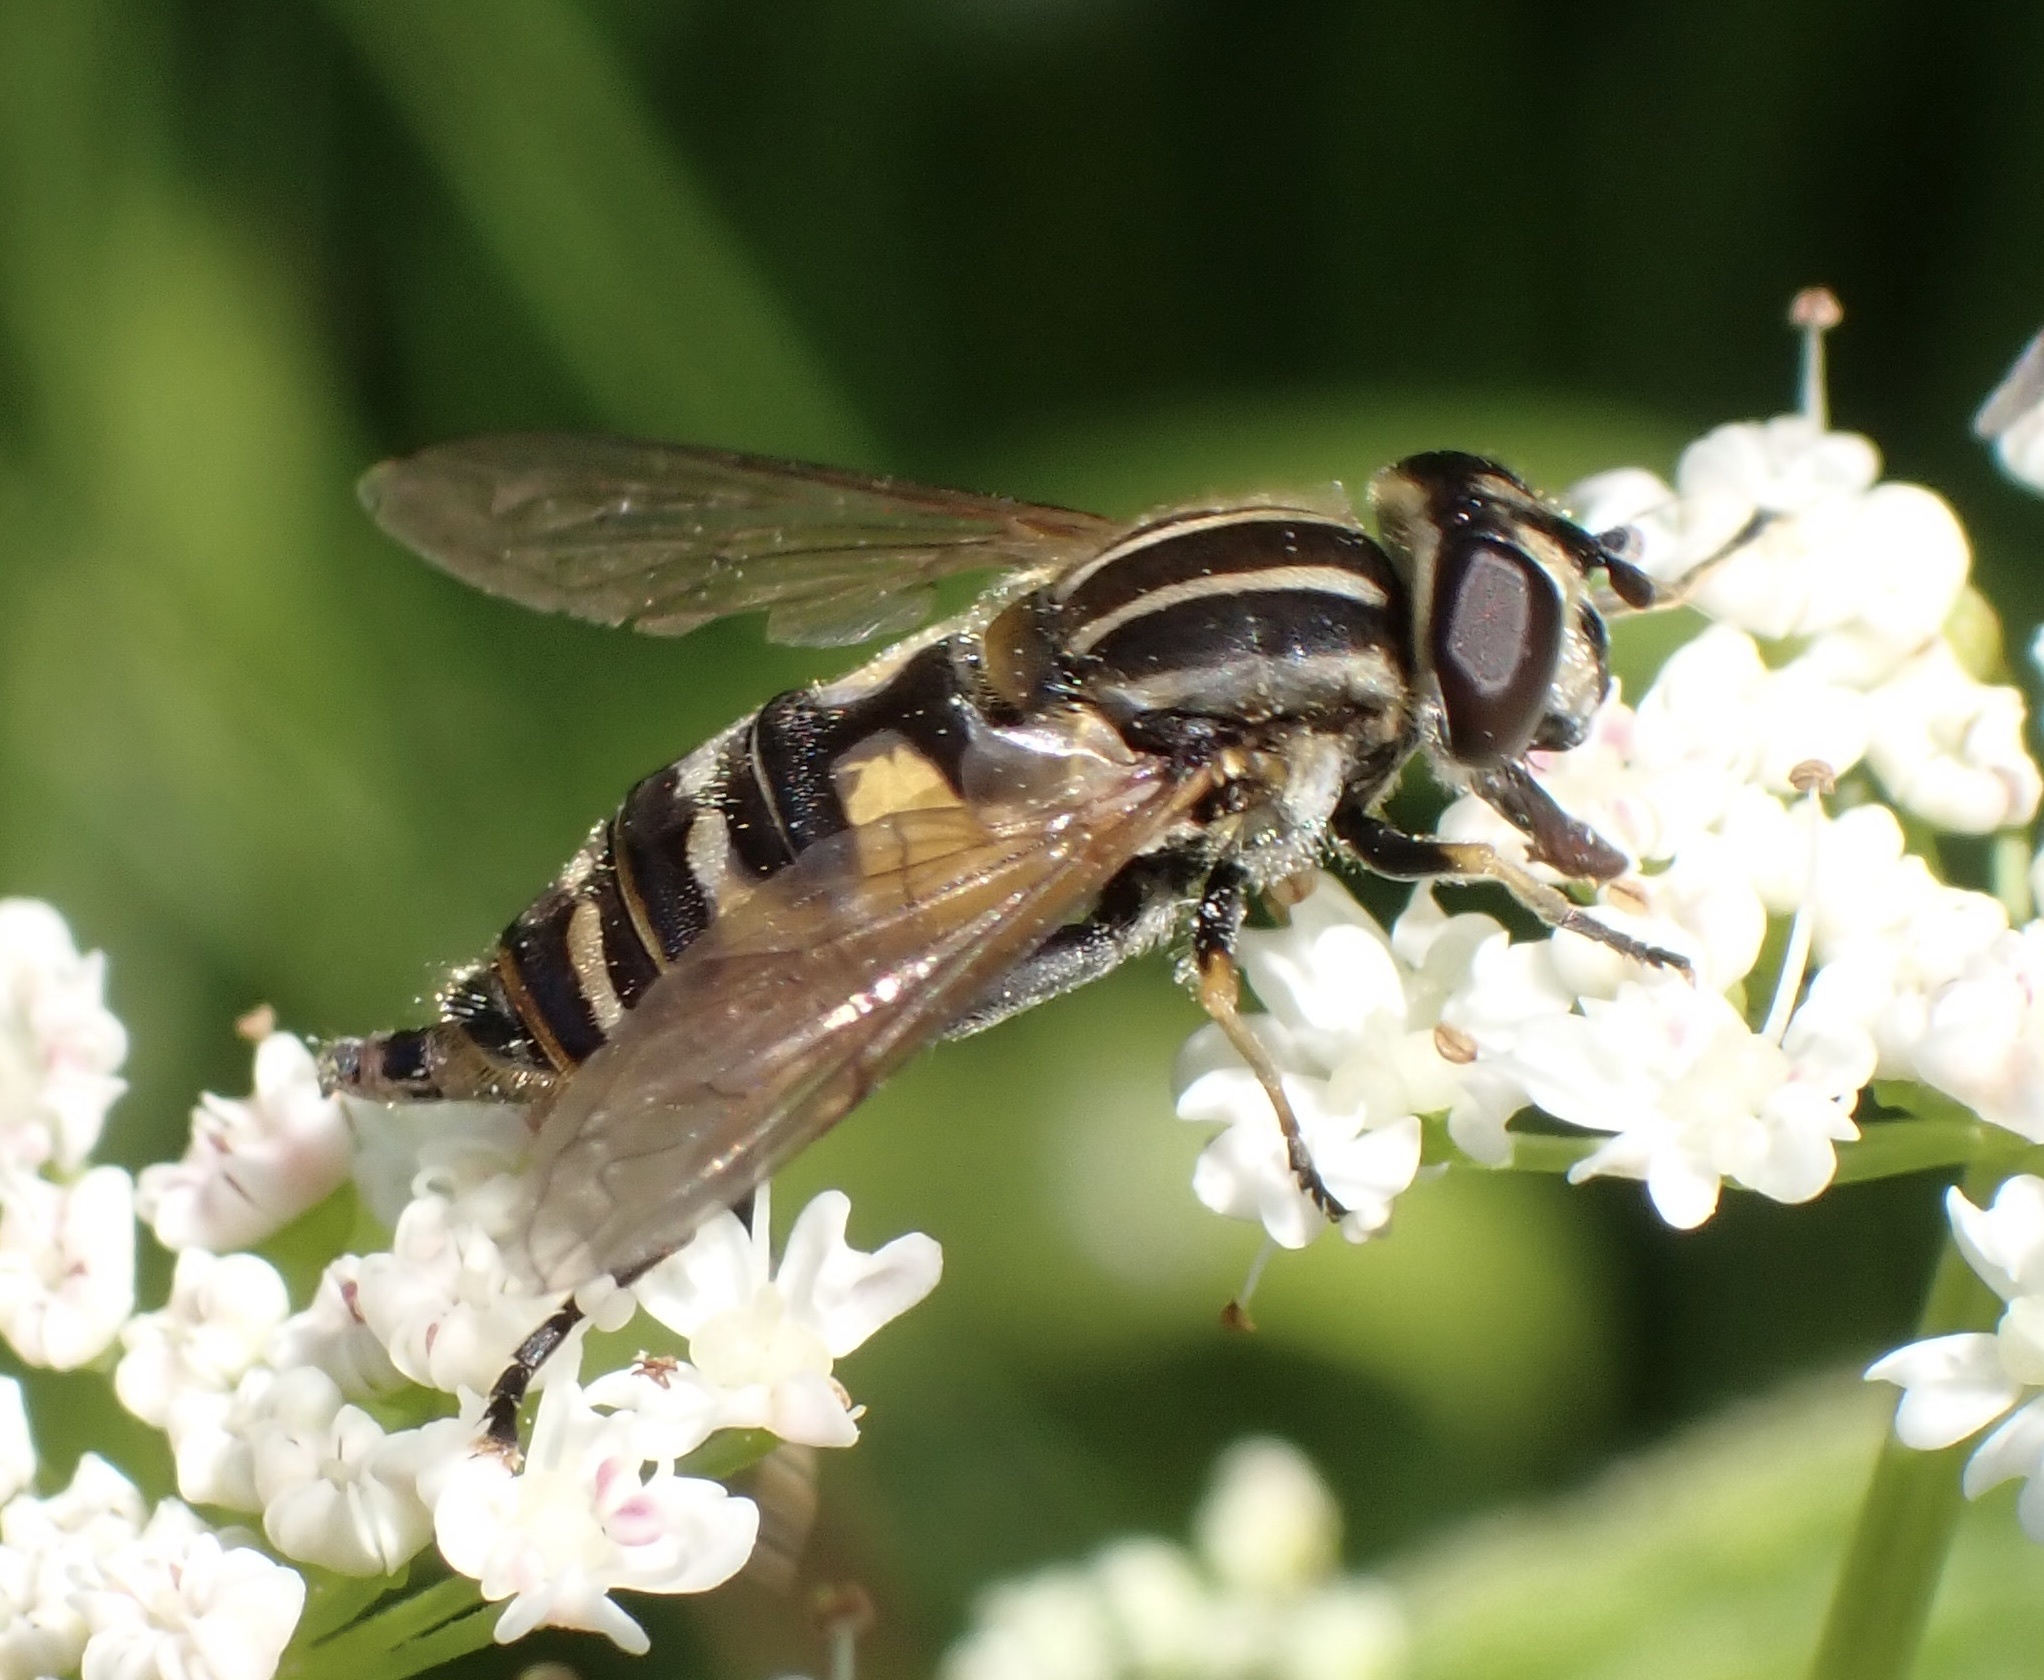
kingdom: Animalia
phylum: Arthropoda
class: Insecta
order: Diptera
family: Syrphidae
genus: Helophilus
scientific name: Helophilus pendulus
